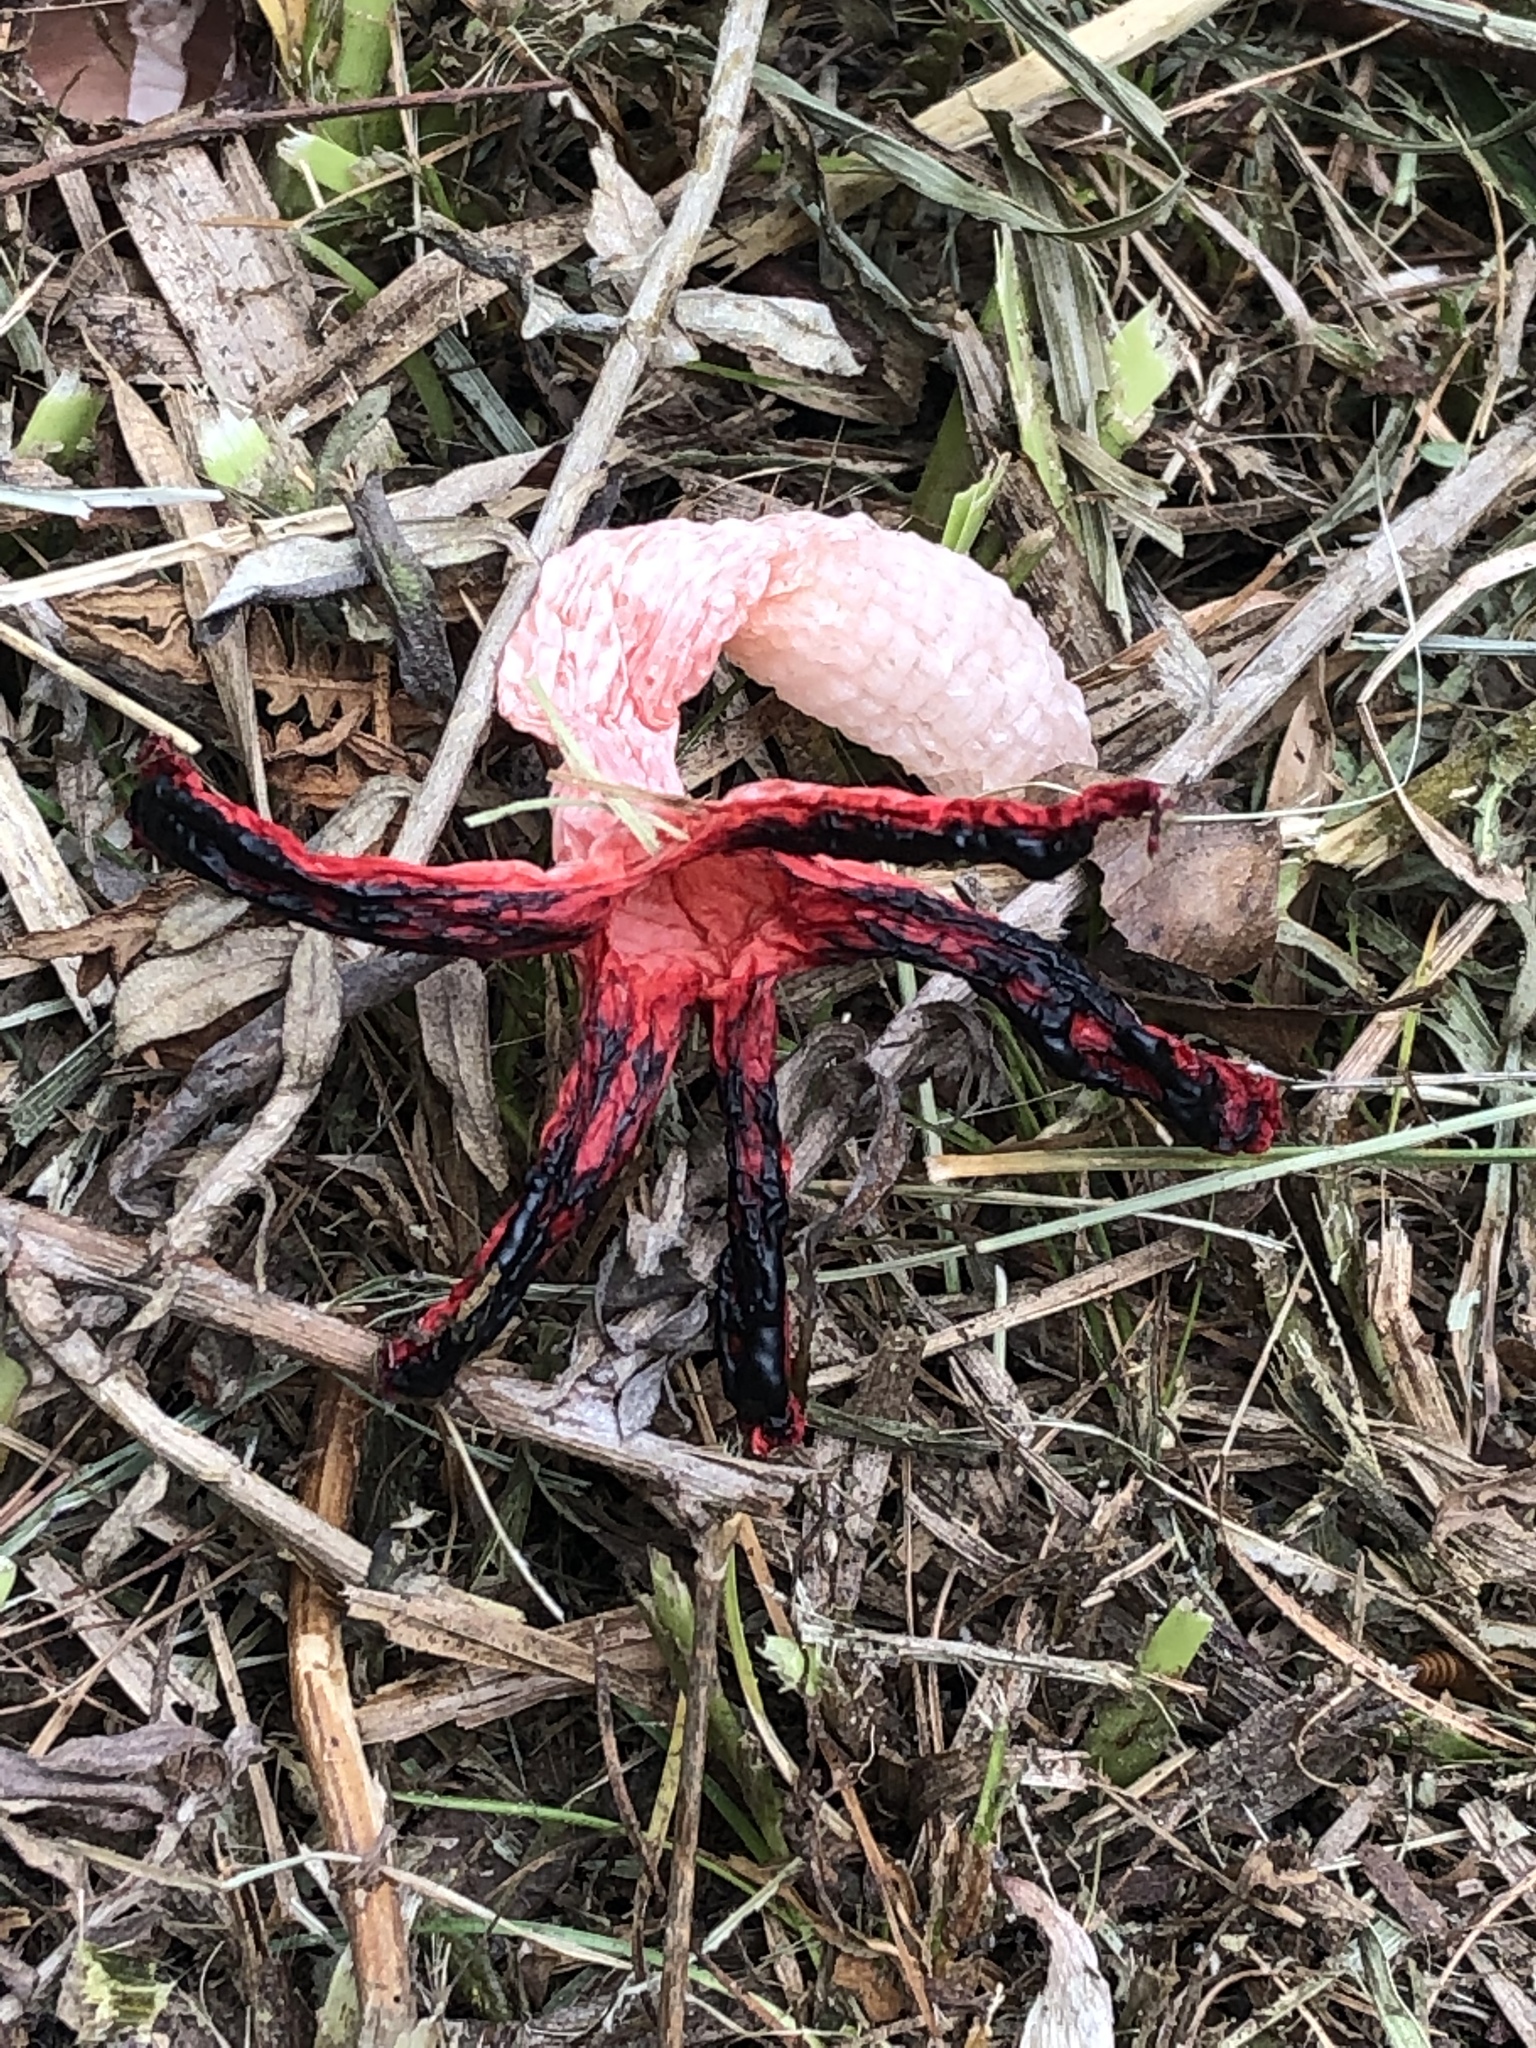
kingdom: Fungi
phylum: Basidiomycota
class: Agaricomycetes
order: Phallales
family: Phallaceae
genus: Clathrus
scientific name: Clathrus archeri
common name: Devil's fingers
